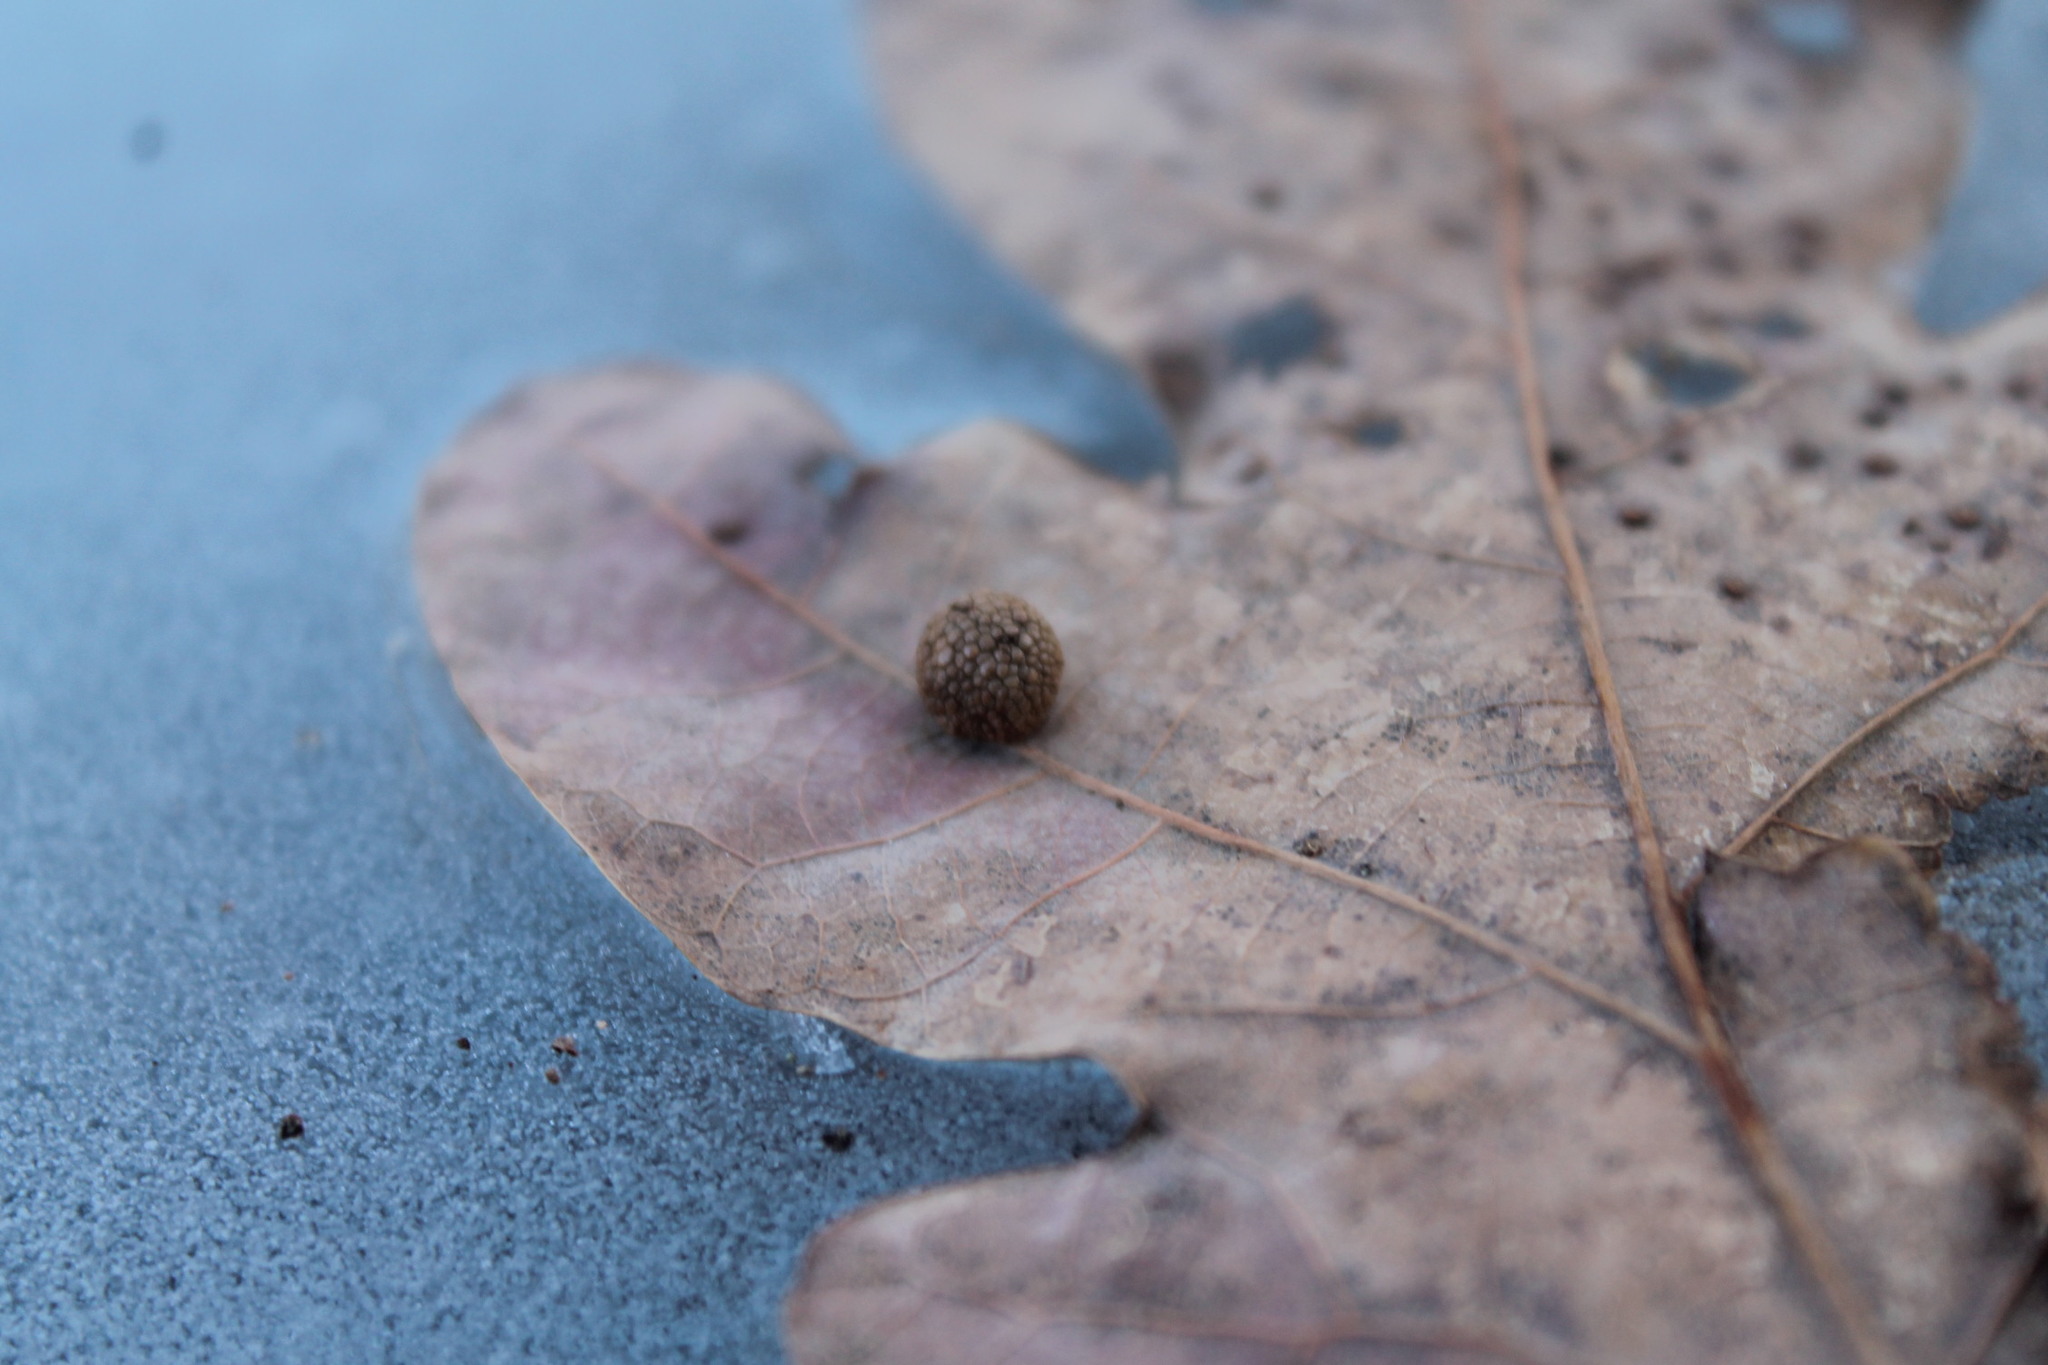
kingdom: Animalia
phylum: Arthropoda
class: Insecta
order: Hymenoptera
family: Cynipidae
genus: Acraspis
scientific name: Acraspis
